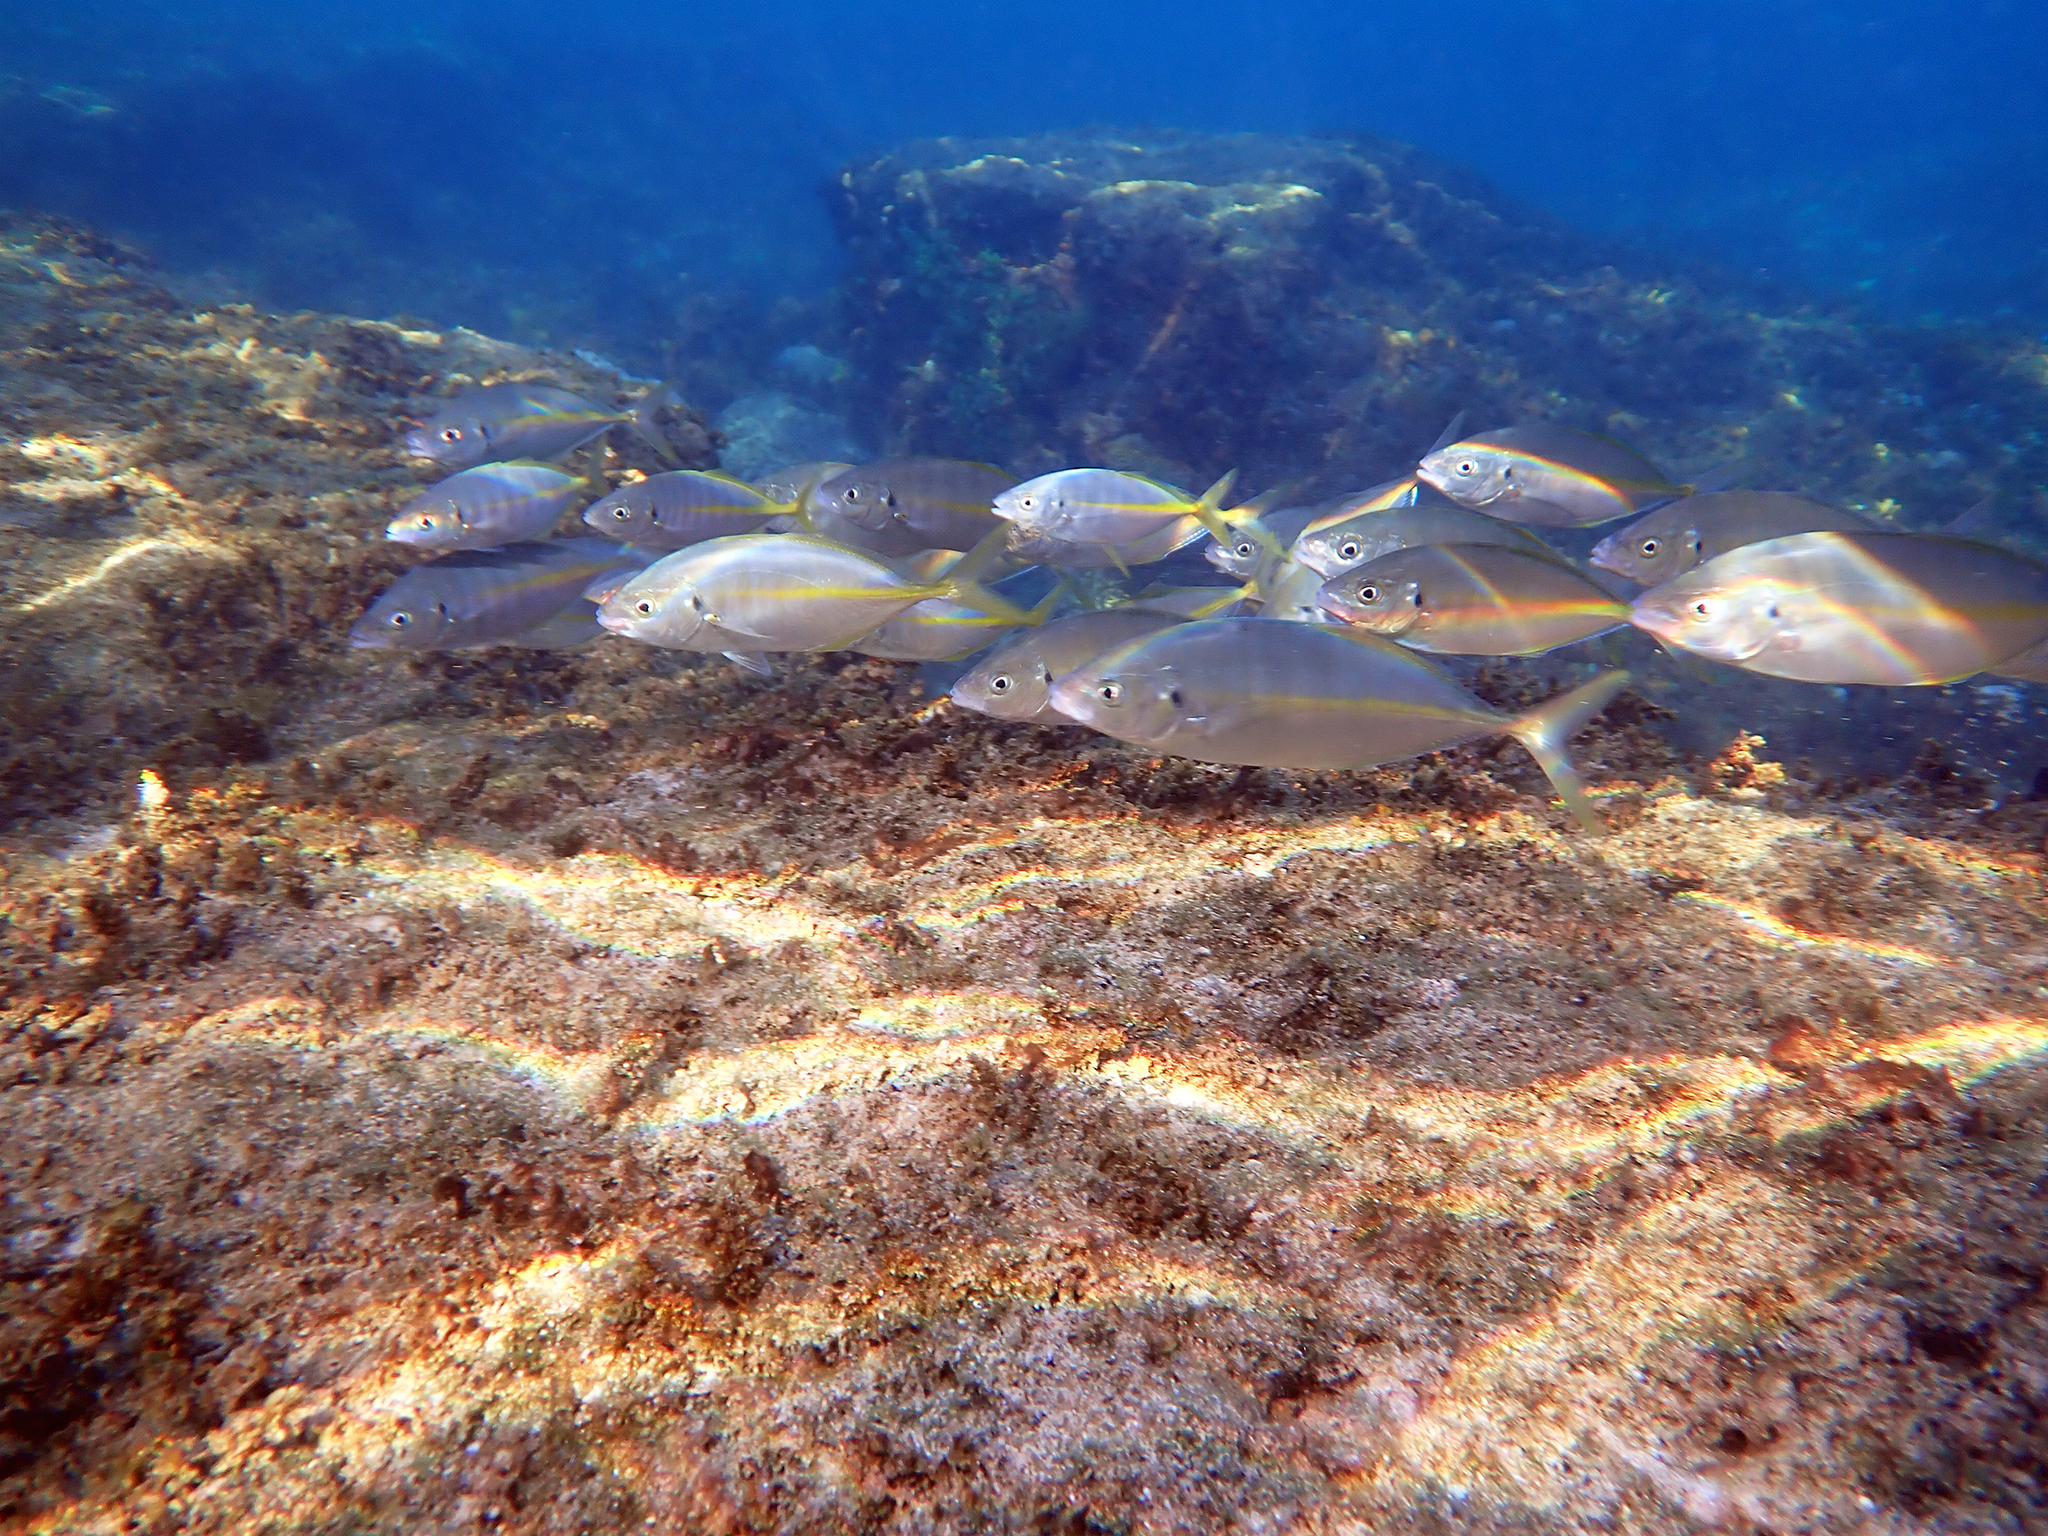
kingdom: Animalia
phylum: Chordata
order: Perciformes
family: Carangidae
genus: Pseudocaranx
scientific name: Pseudocaranx dentex
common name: White trevally
